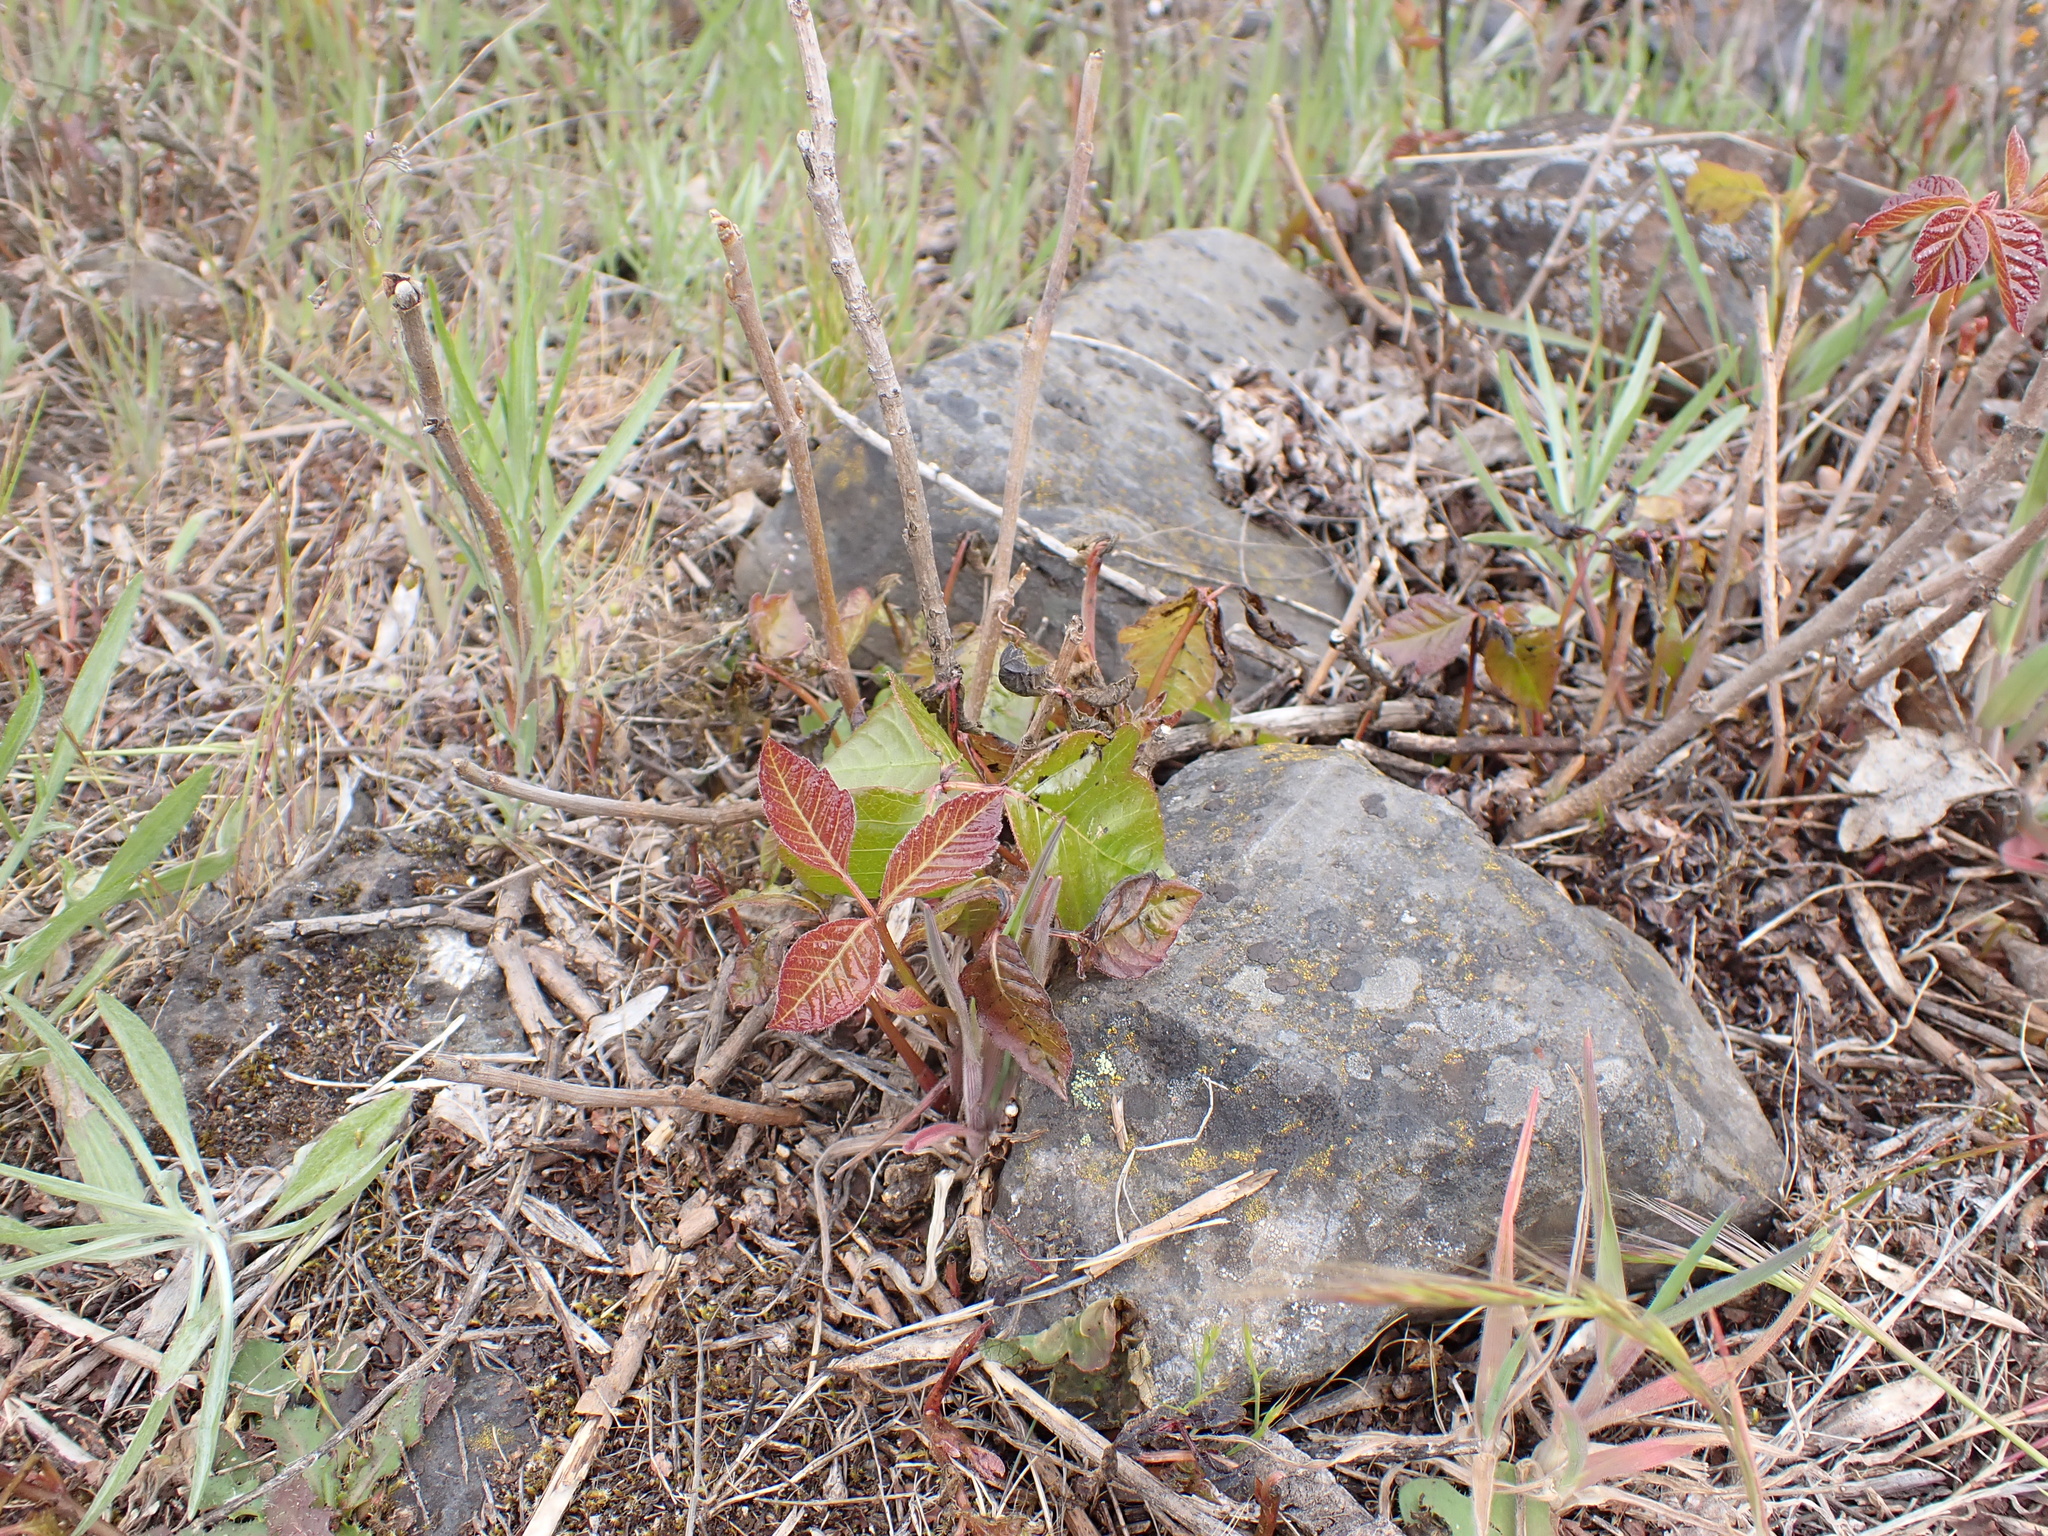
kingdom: Plantae
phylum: Tracheophyta
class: Magnoliopsida
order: Sapindales
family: Anacardiaceae
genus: Toxicodendron
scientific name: Toxicodendron diversilobum
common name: Pacific poison-oak
